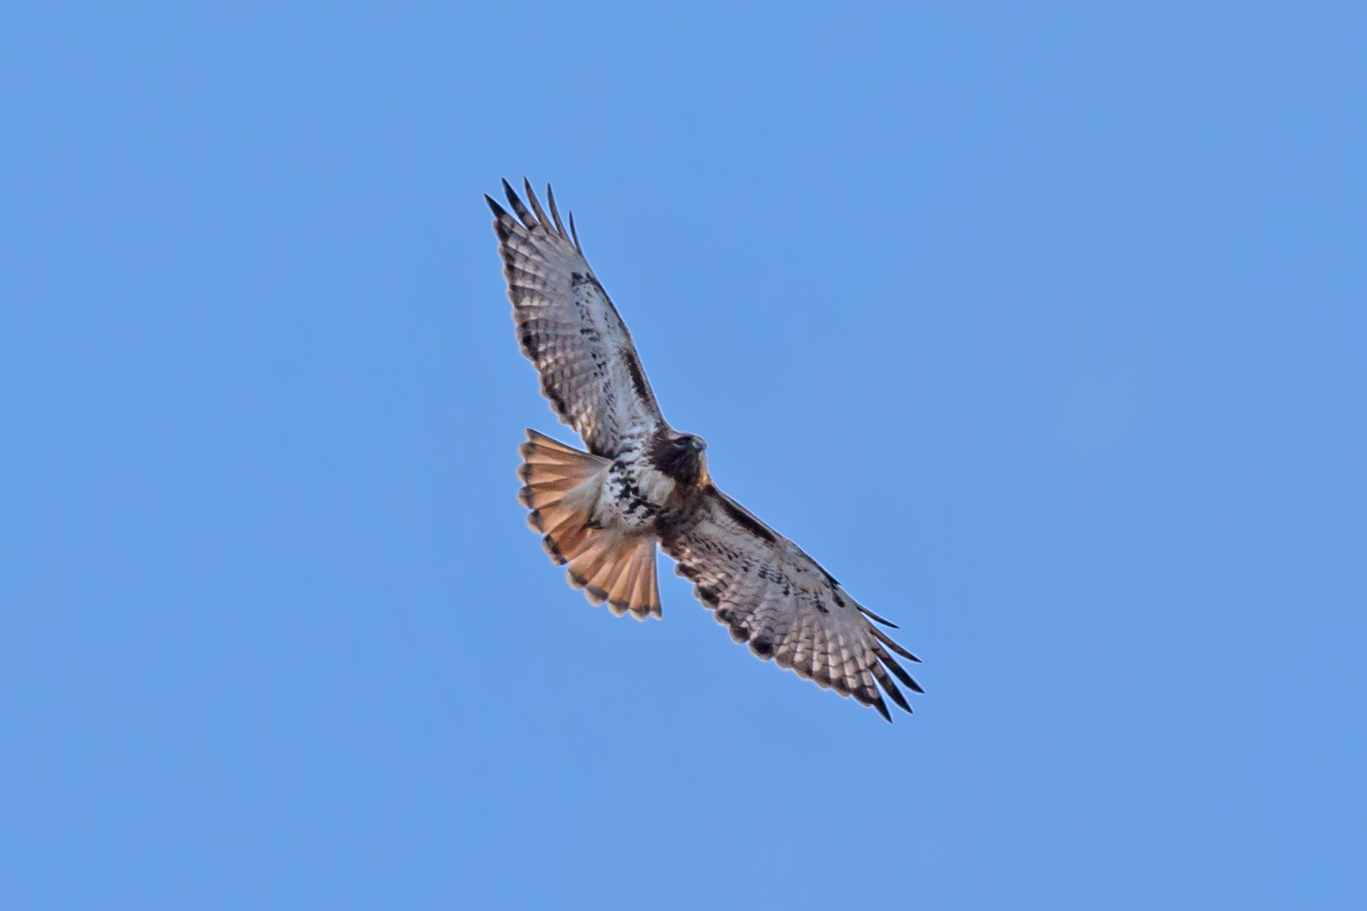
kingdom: Animalia
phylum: Chordata
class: Aves
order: Accipitriformes
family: Accipitridae
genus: Buteo
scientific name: Buteo jamaicensis
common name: Red-tailed hawk
